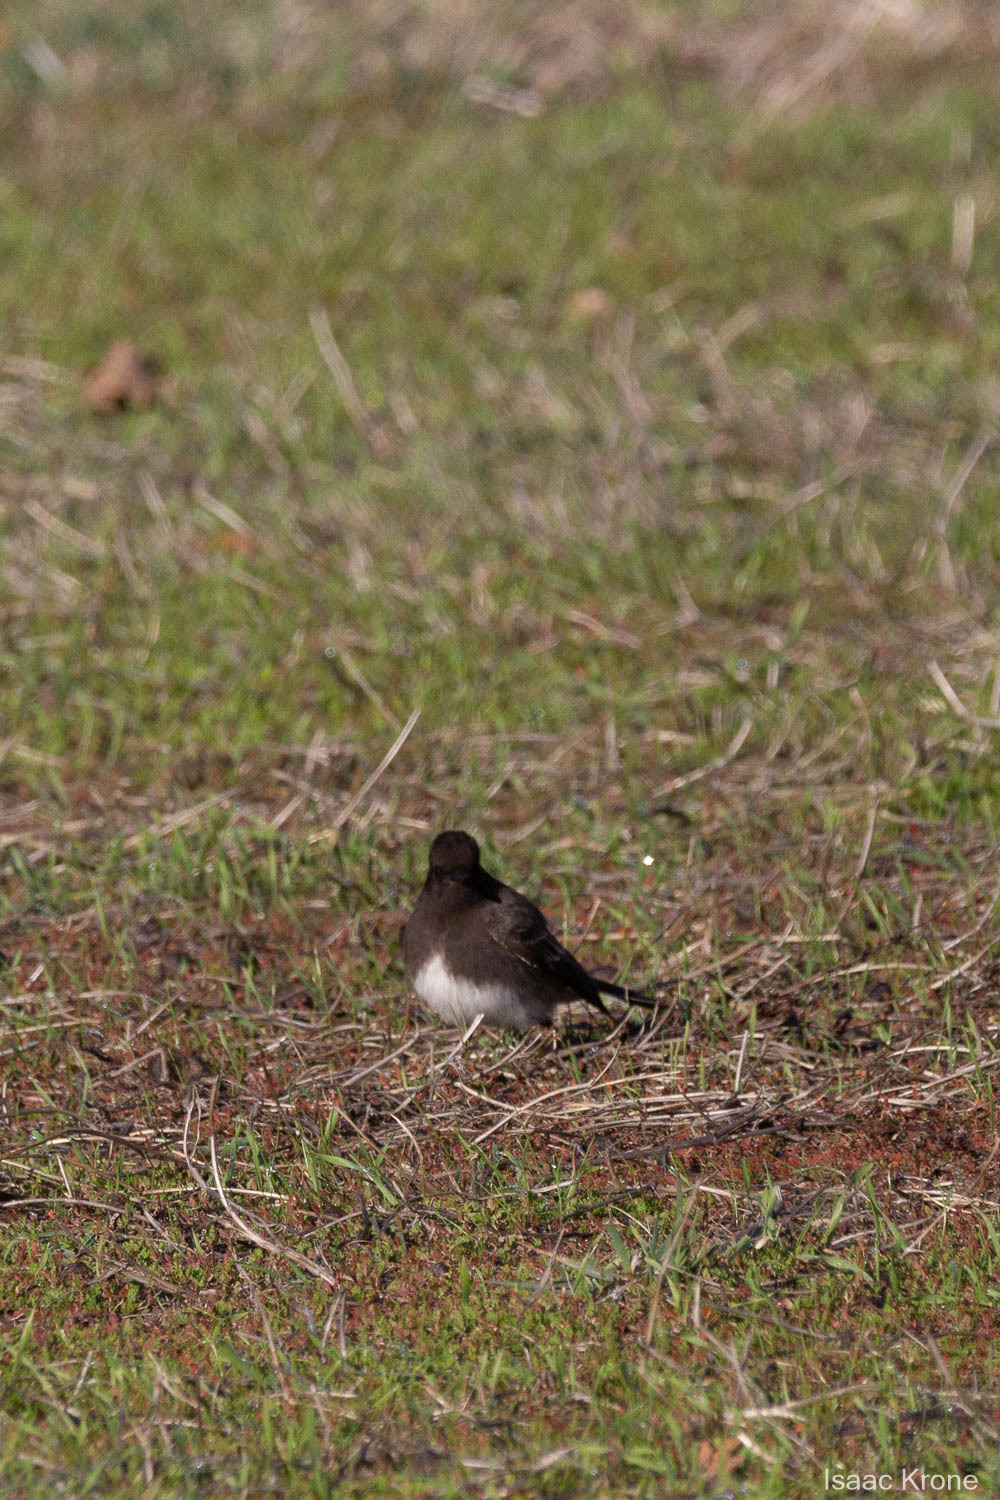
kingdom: Animalia
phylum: Chordata
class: Aves
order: Passeriformes
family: Tyrannidae
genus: Sayornis
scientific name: Sayornis nigricans
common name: Black phoebe
